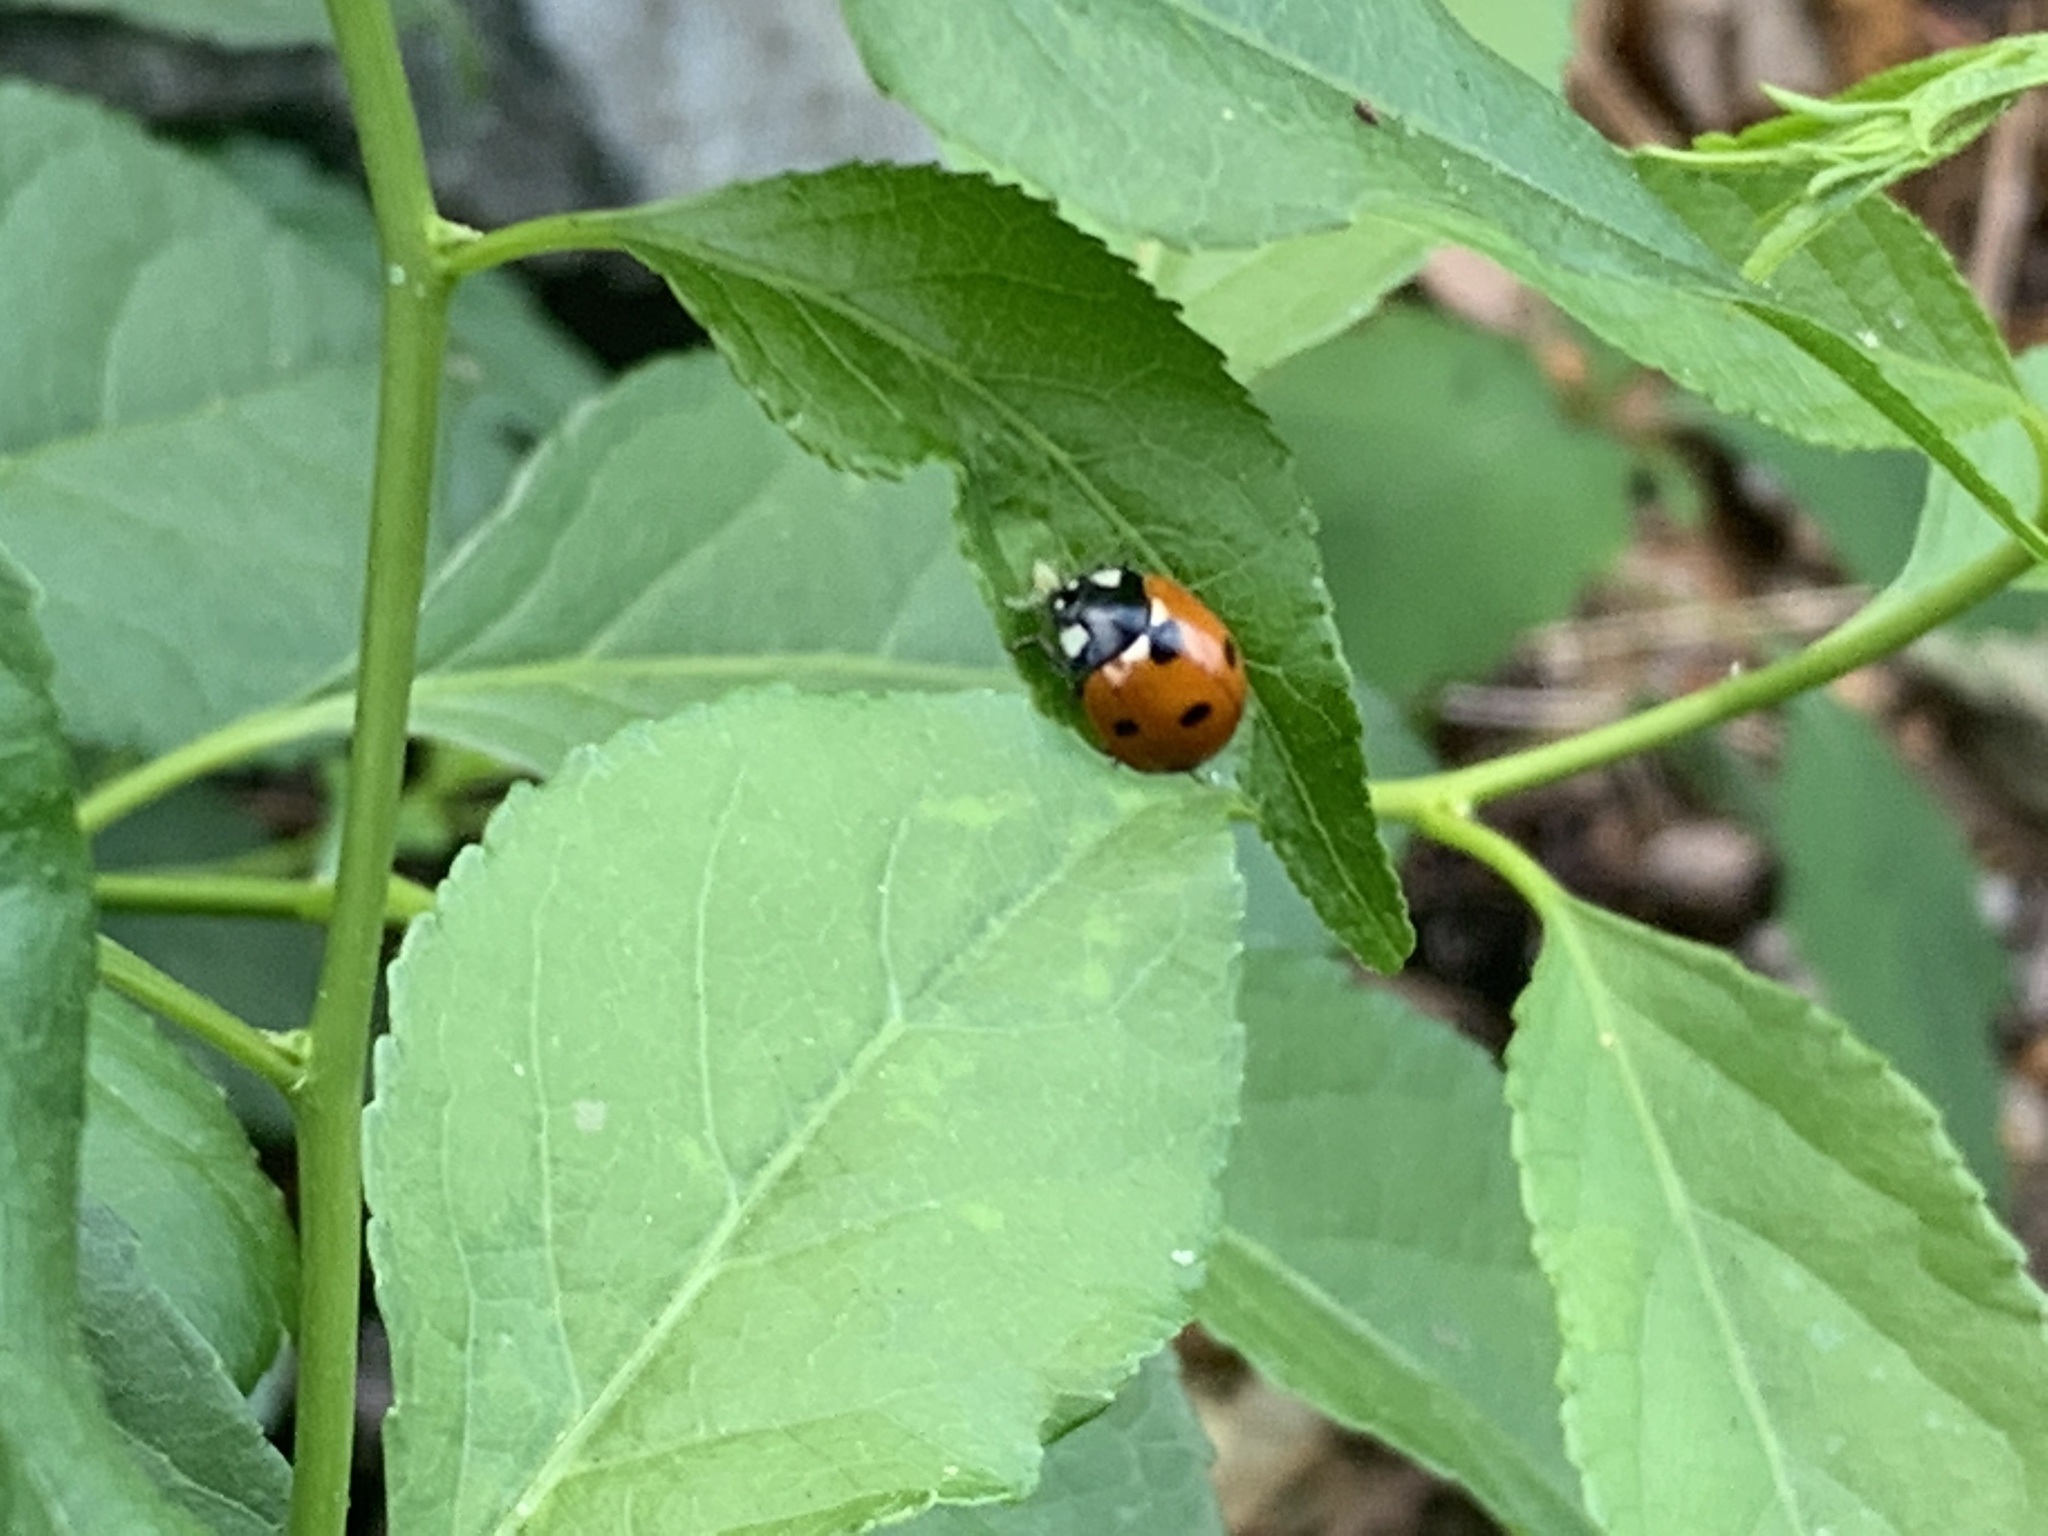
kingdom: Animalia
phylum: Arthropoda
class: Insecta
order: Coleoptera
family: Coccinellidae
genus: Coccinella
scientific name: Coccinella septempunctata
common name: Sevenspotted lady beetle
